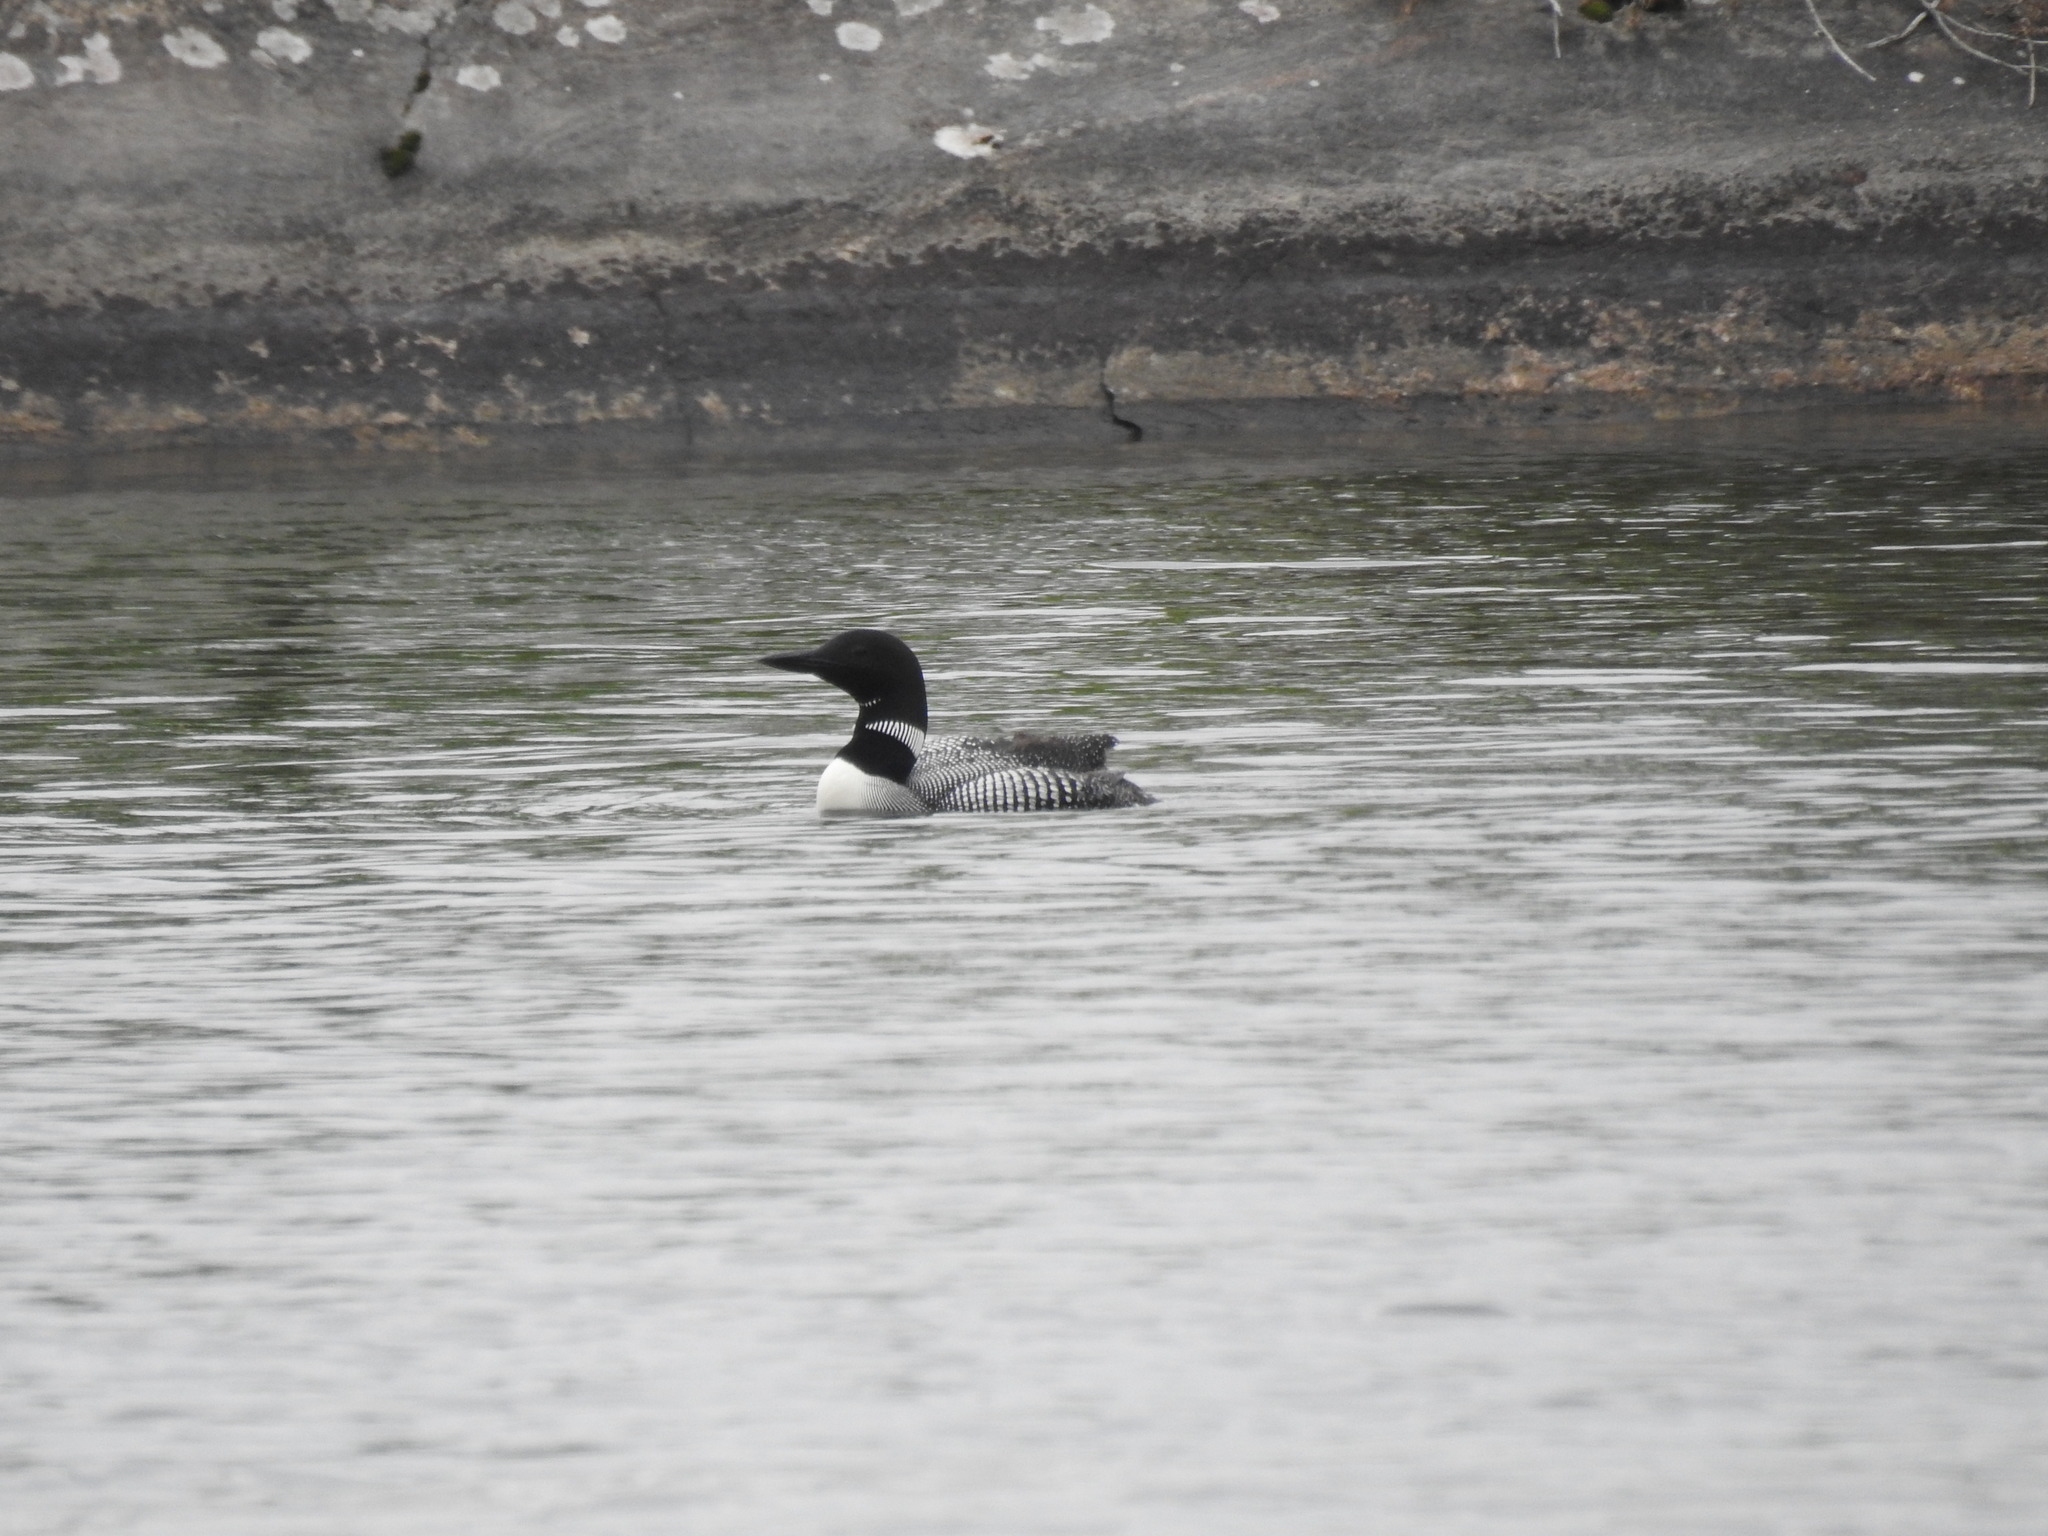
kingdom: Animalia
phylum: Chordata
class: Aves
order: Gaviiformes
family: Gaviidae
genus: Gavia
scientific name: Gavia immer
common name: Common loon
